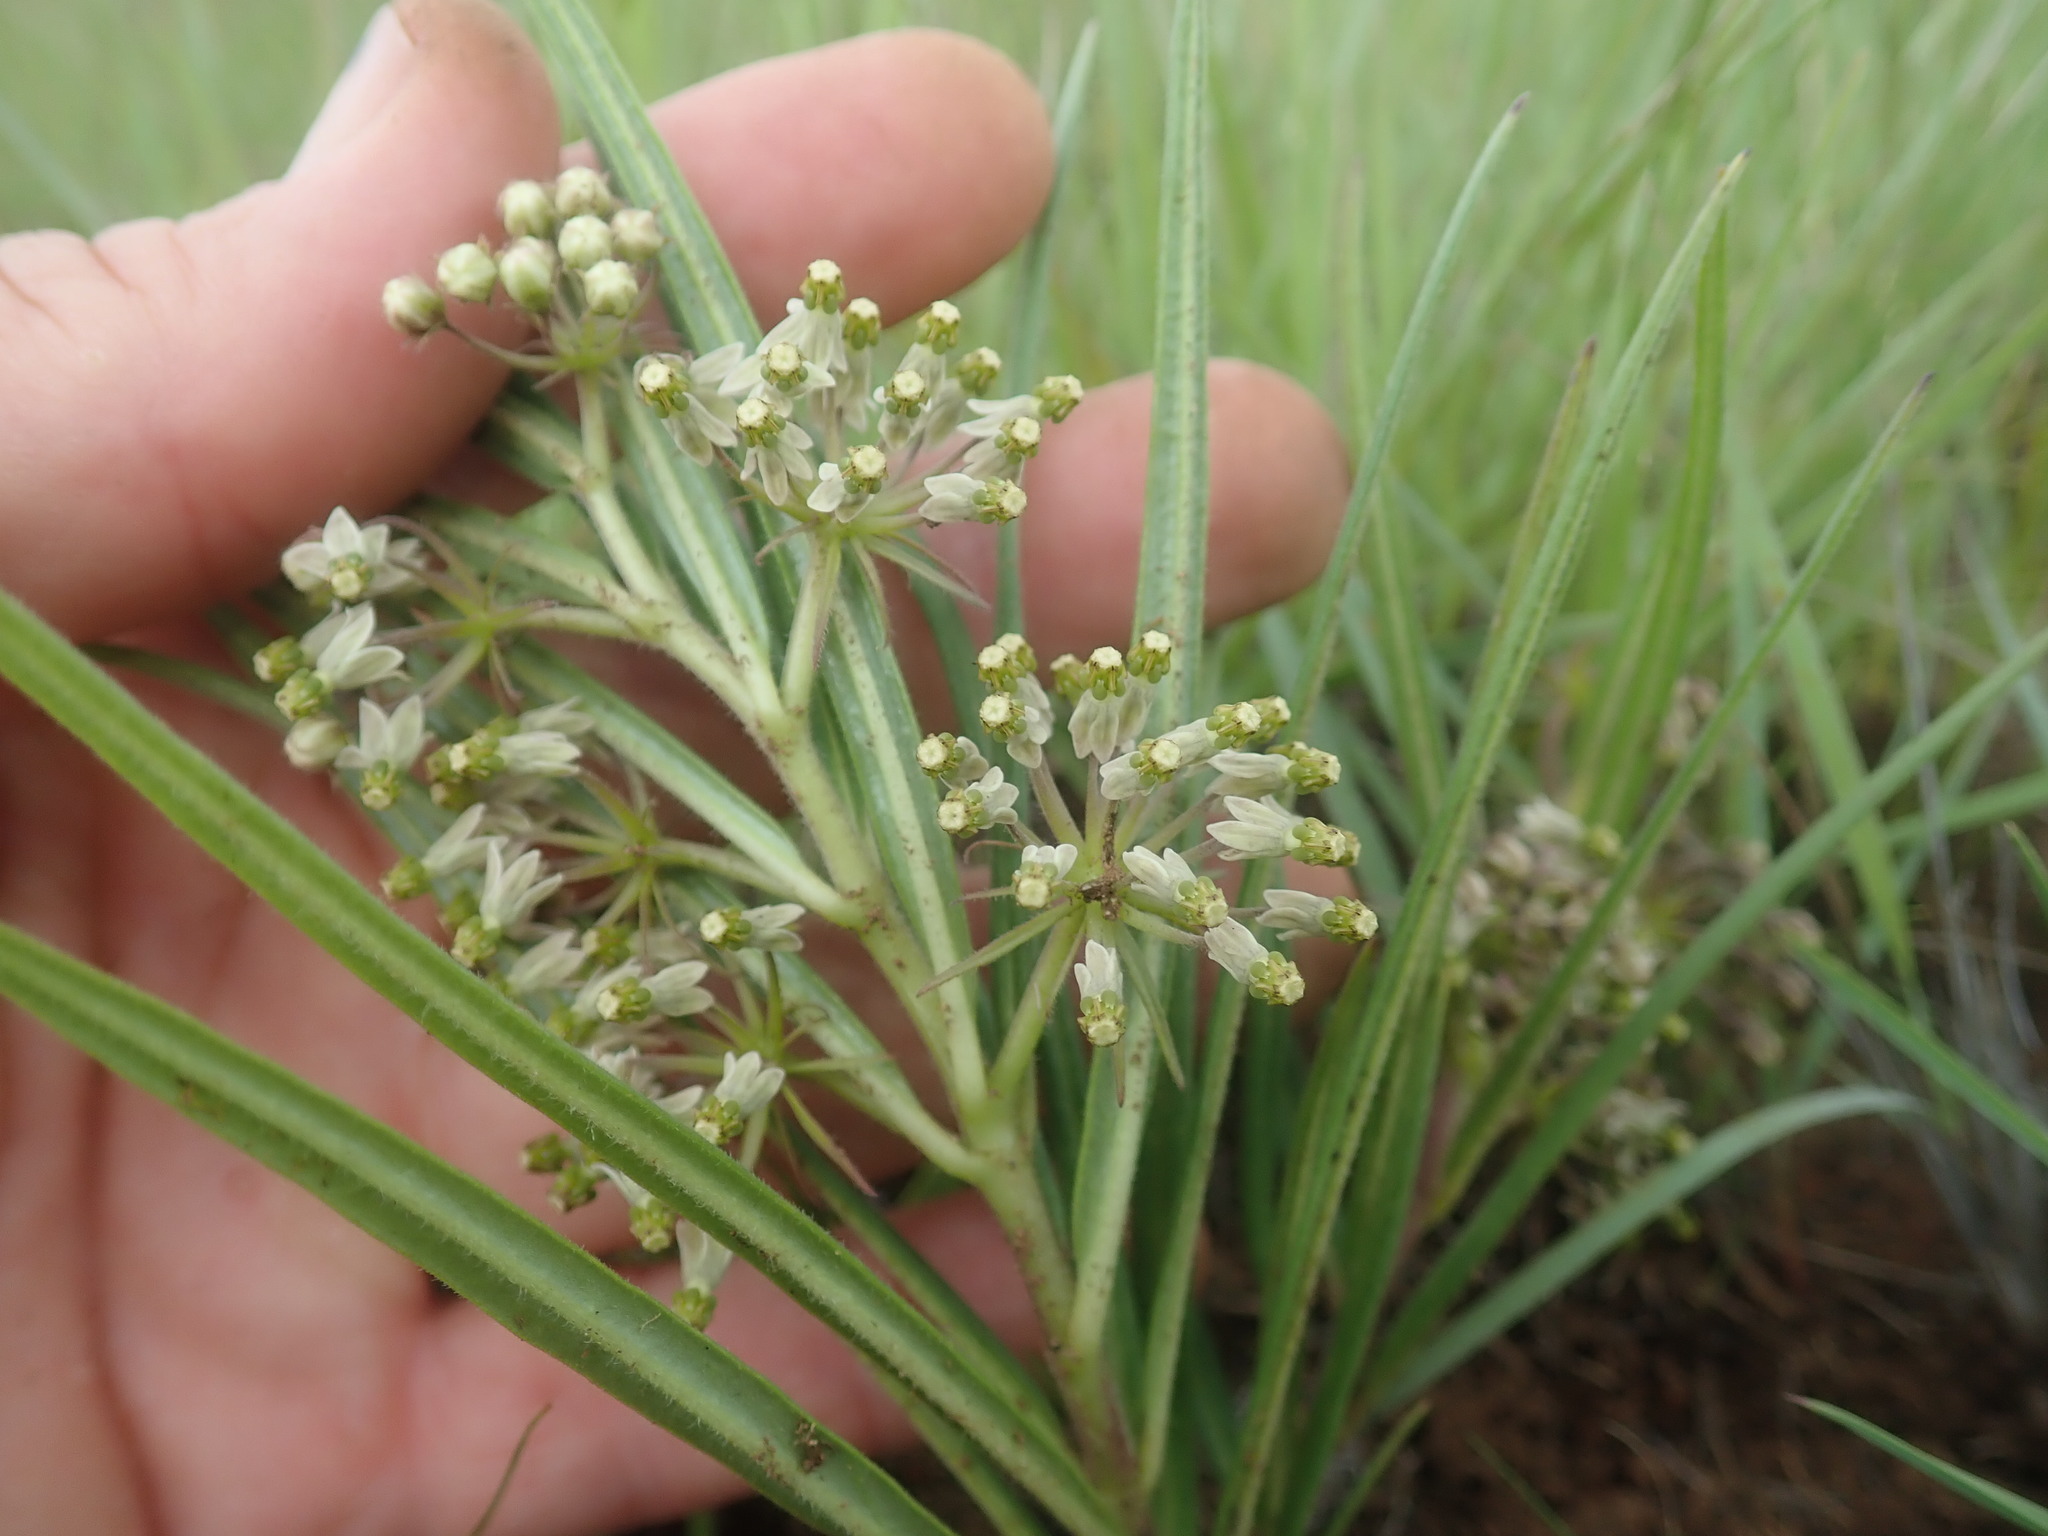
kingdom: Plantae
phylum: Tracheophyta
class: Magnoliopsida
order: Gentianales
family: Apocynaceae
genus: Xysmalobium
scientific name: Xysmalobium involucratum
